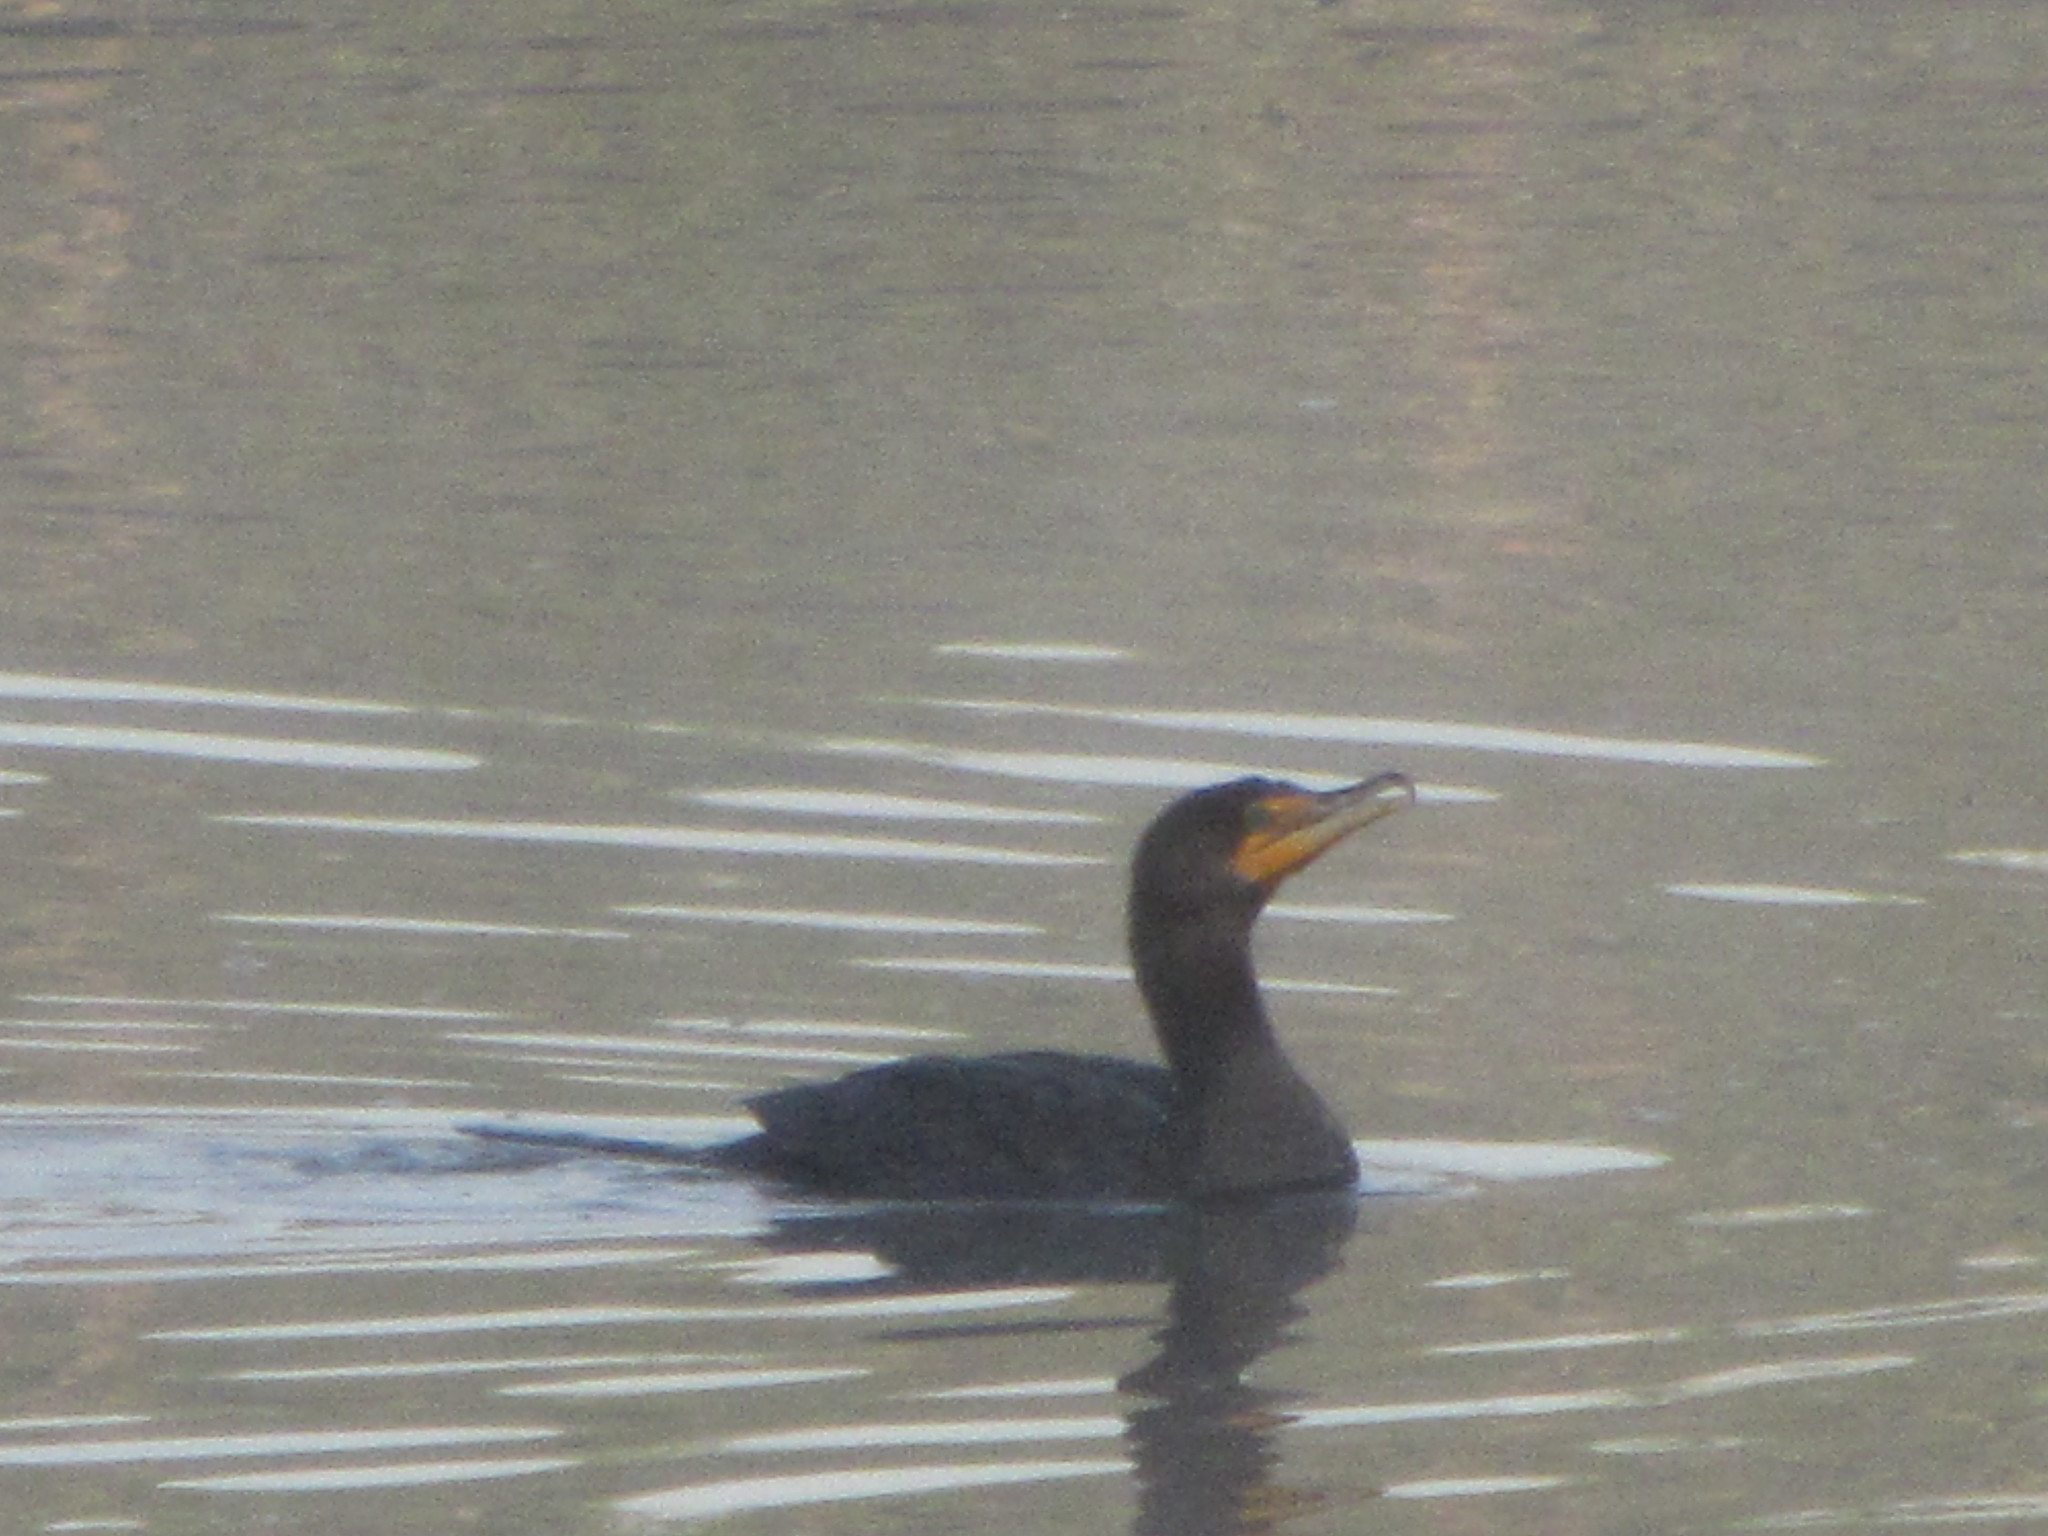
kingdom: Animalia
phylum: Chordata
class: Aves
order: Suliformes
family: Phalacrocoracidae
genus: Phalacrocorax
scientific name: Phalacrocorax auritus
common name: Double-crested cormorant
